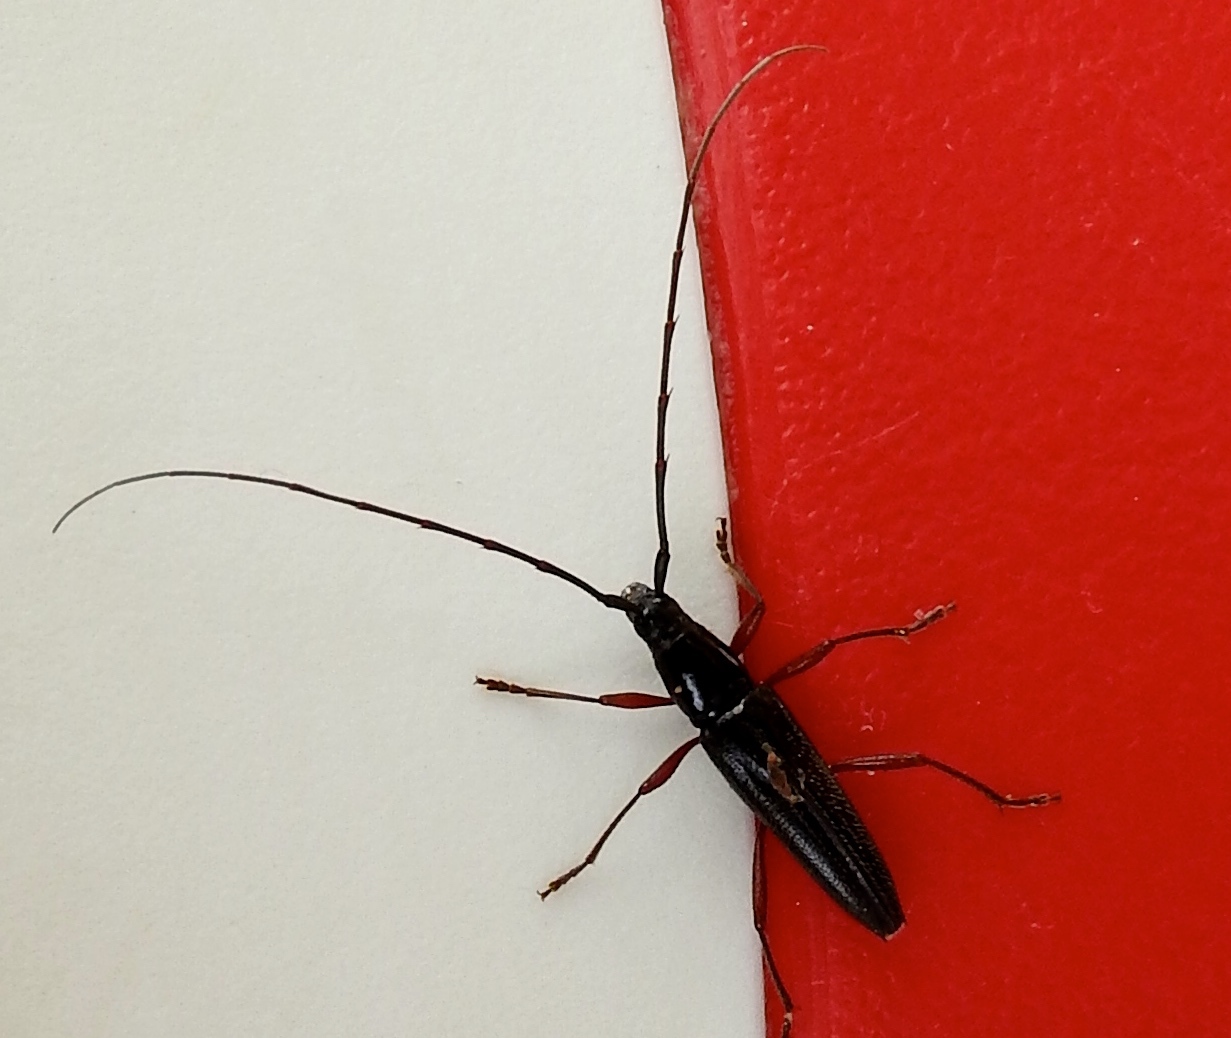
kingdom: Animalia
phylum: Arthropoda
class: Insecta
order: Coleoptera
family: Cerambycidae
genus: Stenosphenus
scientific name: Stenosphenus
